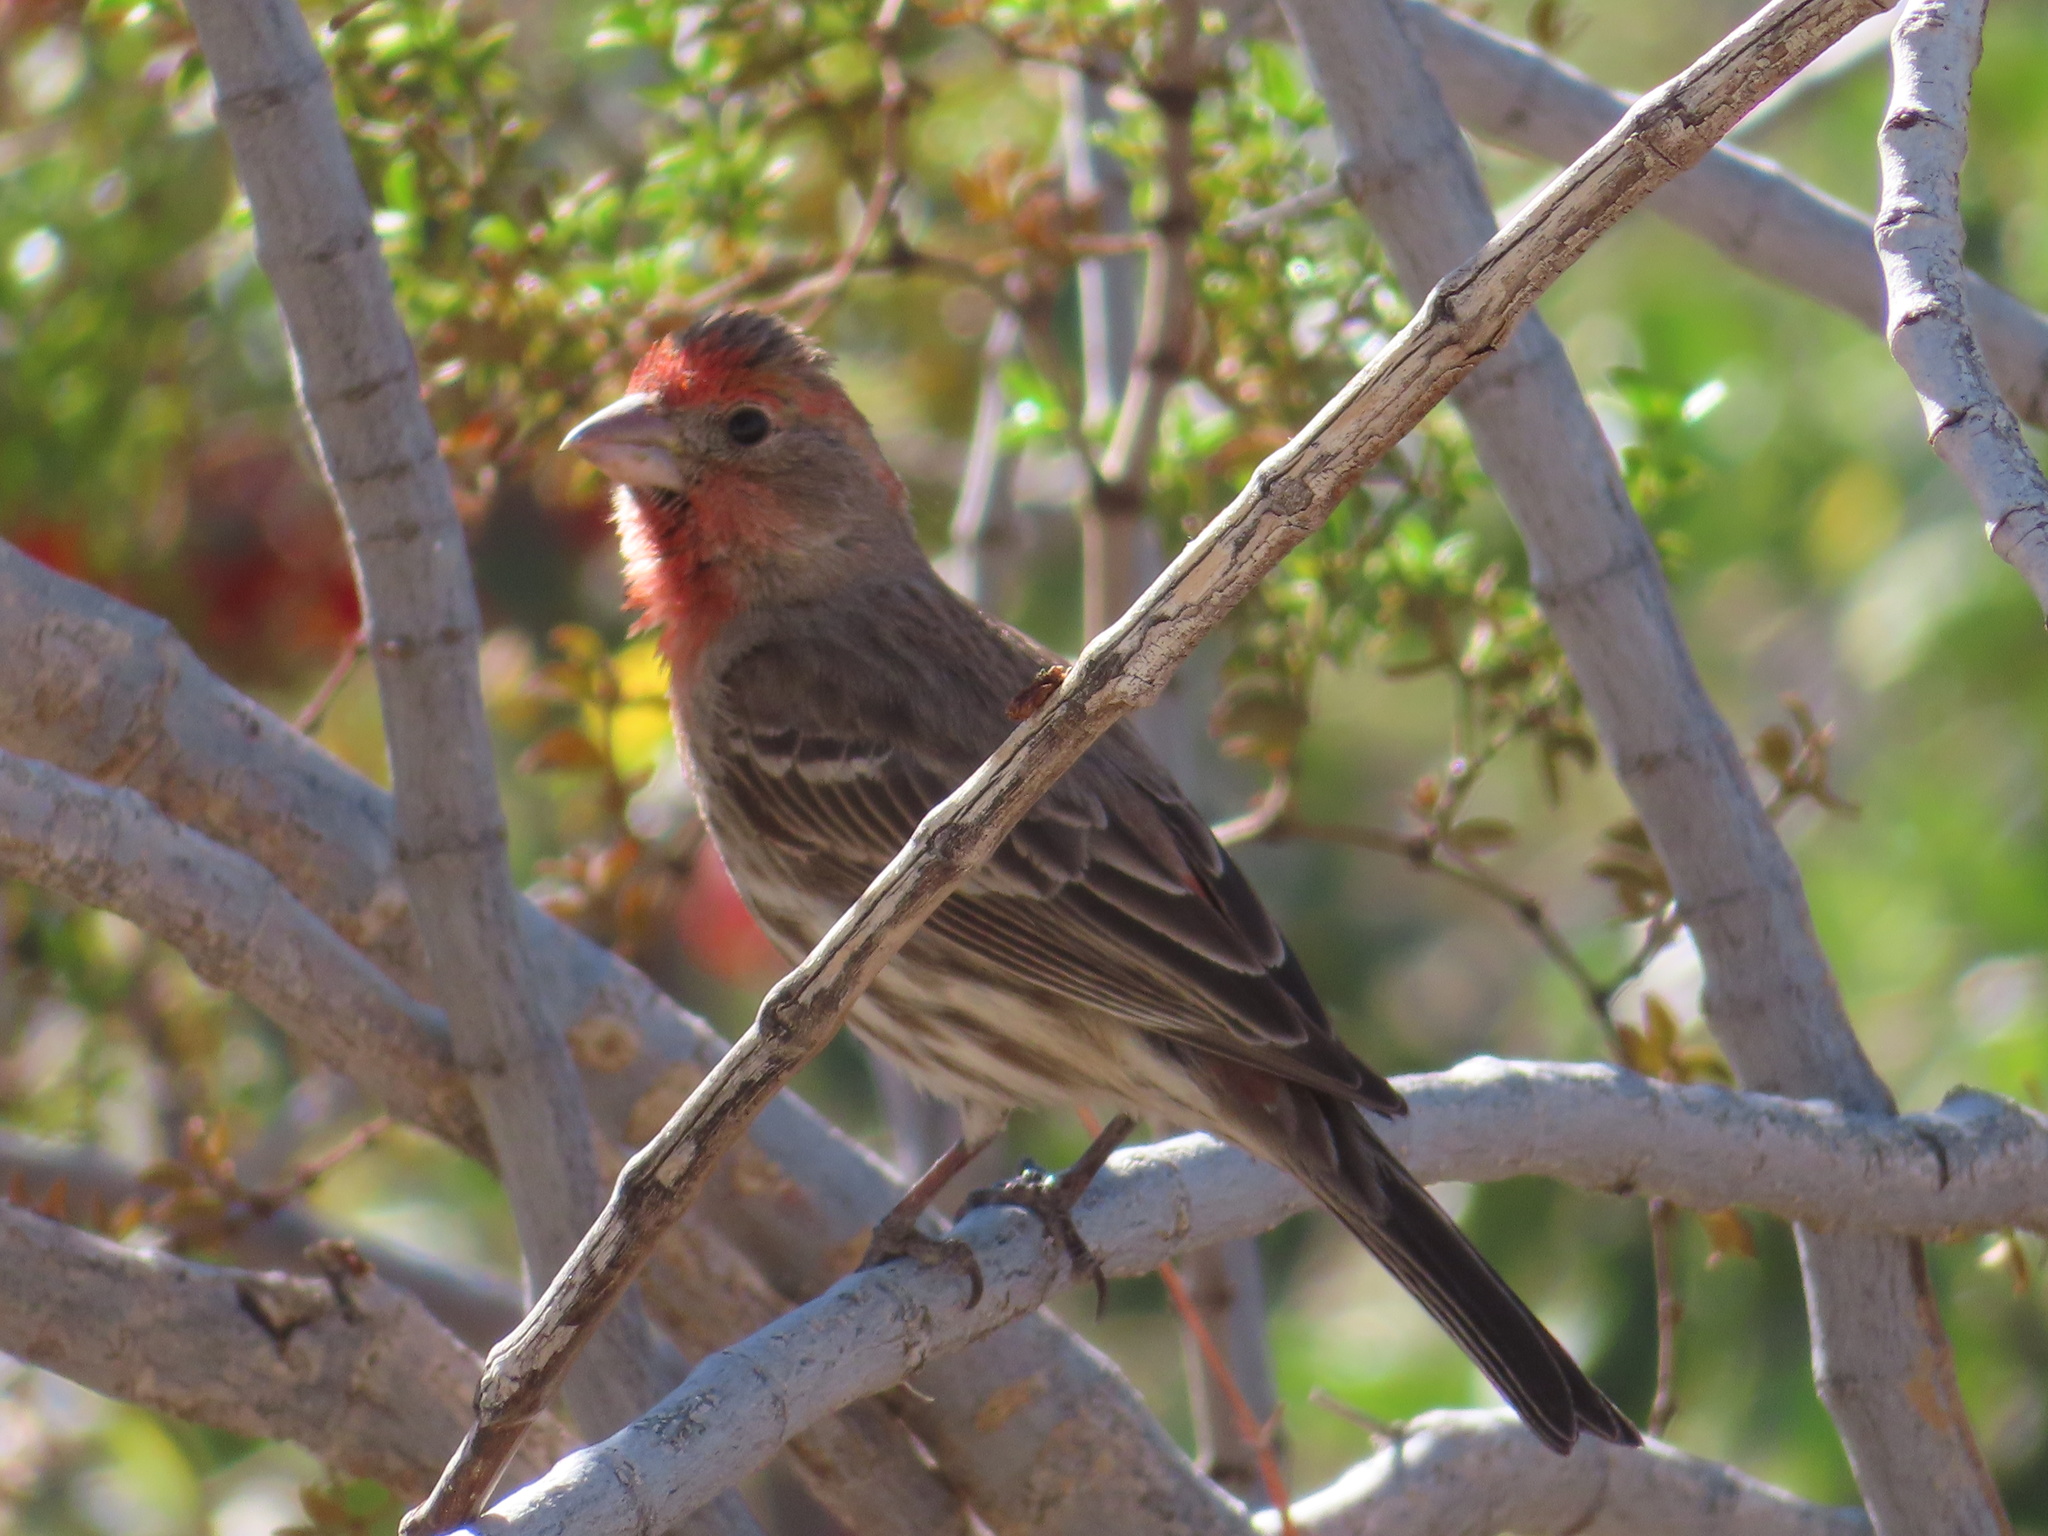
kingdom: Animalia
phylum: Chordata
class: Aves
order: Passeriformes
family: Fringillidae
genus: Haemorhous
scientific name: Haemorhous mexicanus
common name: House finch
